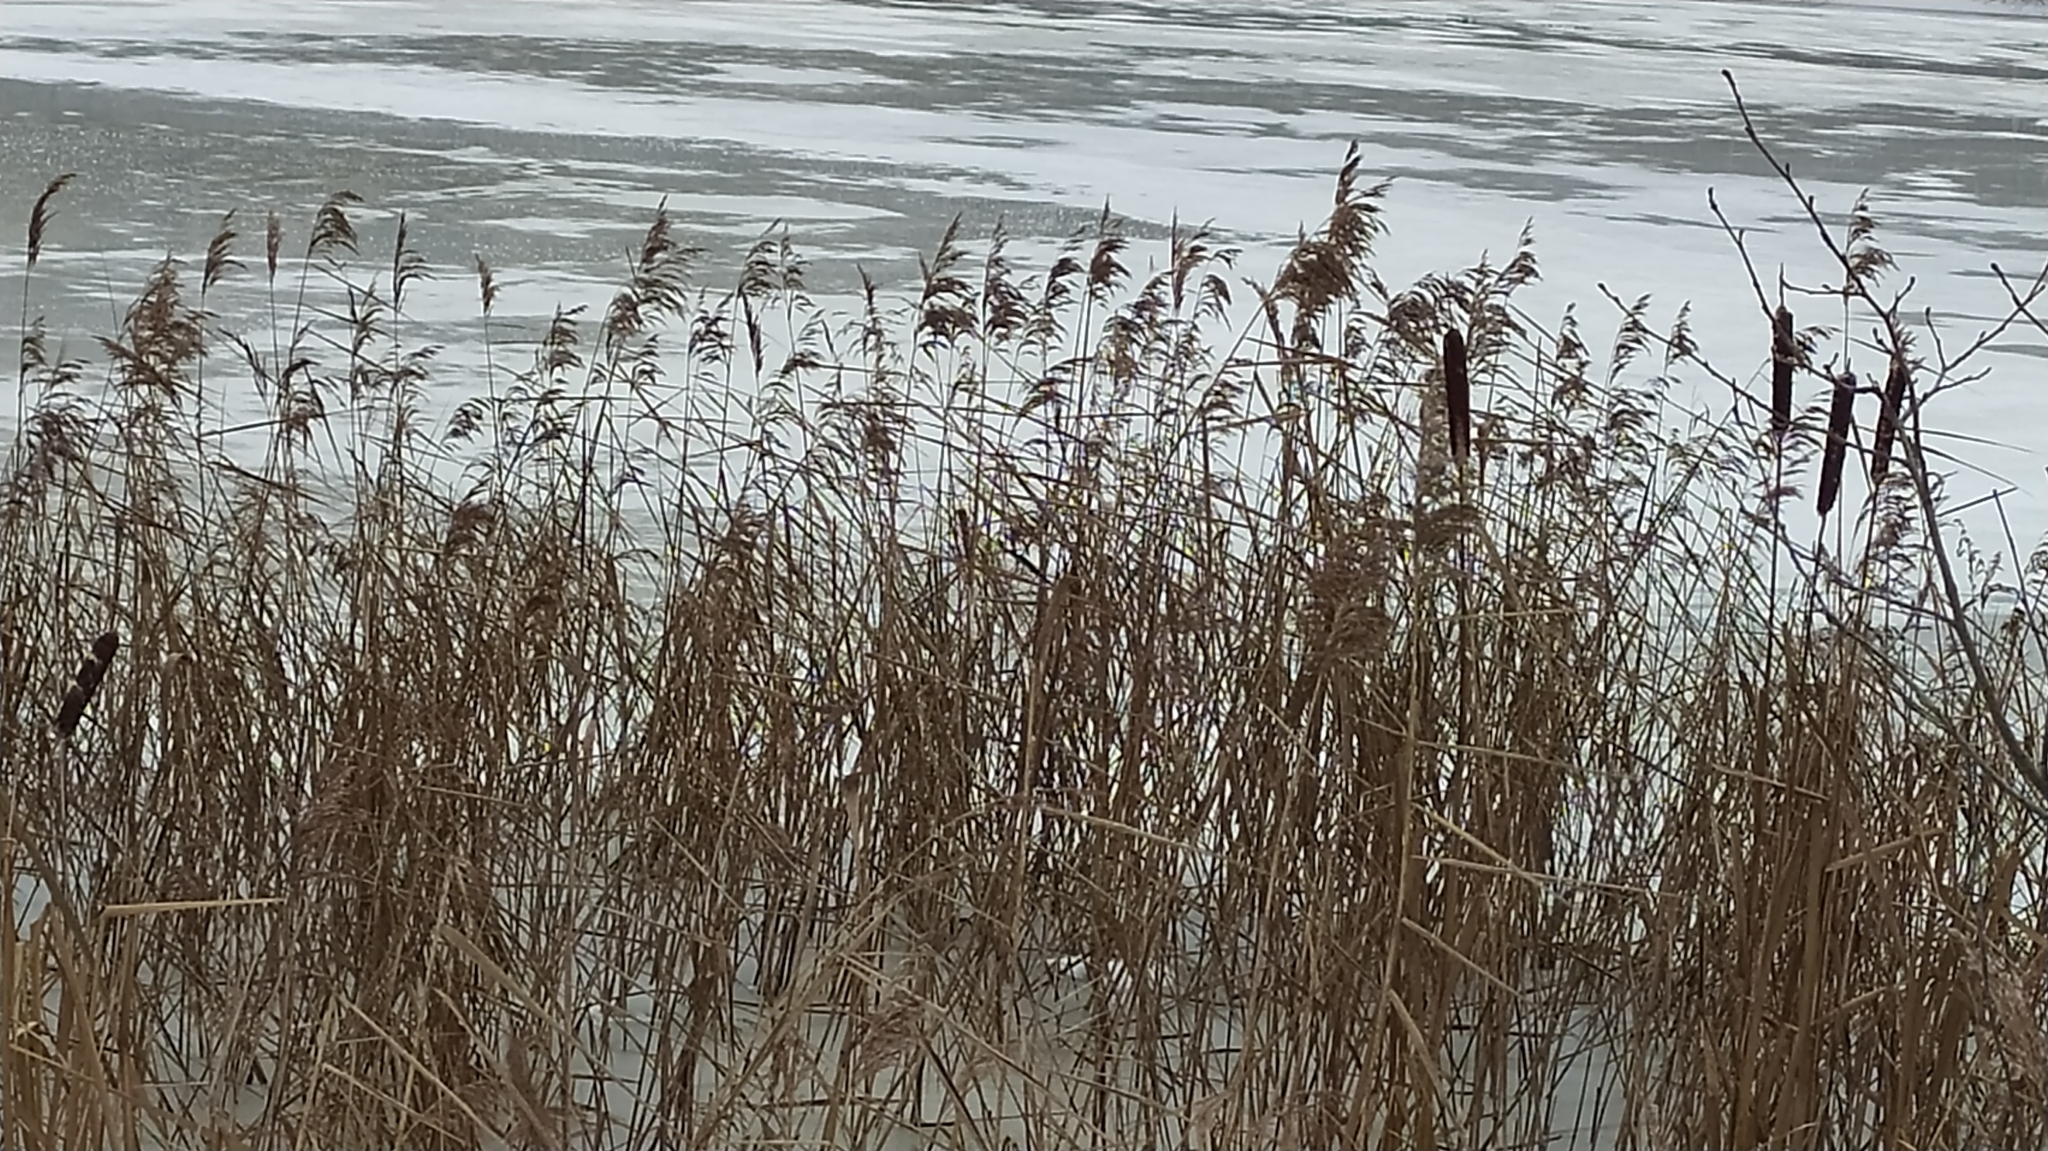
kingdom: Plantae
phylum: Tracheophyta
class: Liliopsida
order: Poales
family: Poaceae
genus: Phragmites
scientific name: Phragmites australis
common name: Common reed
